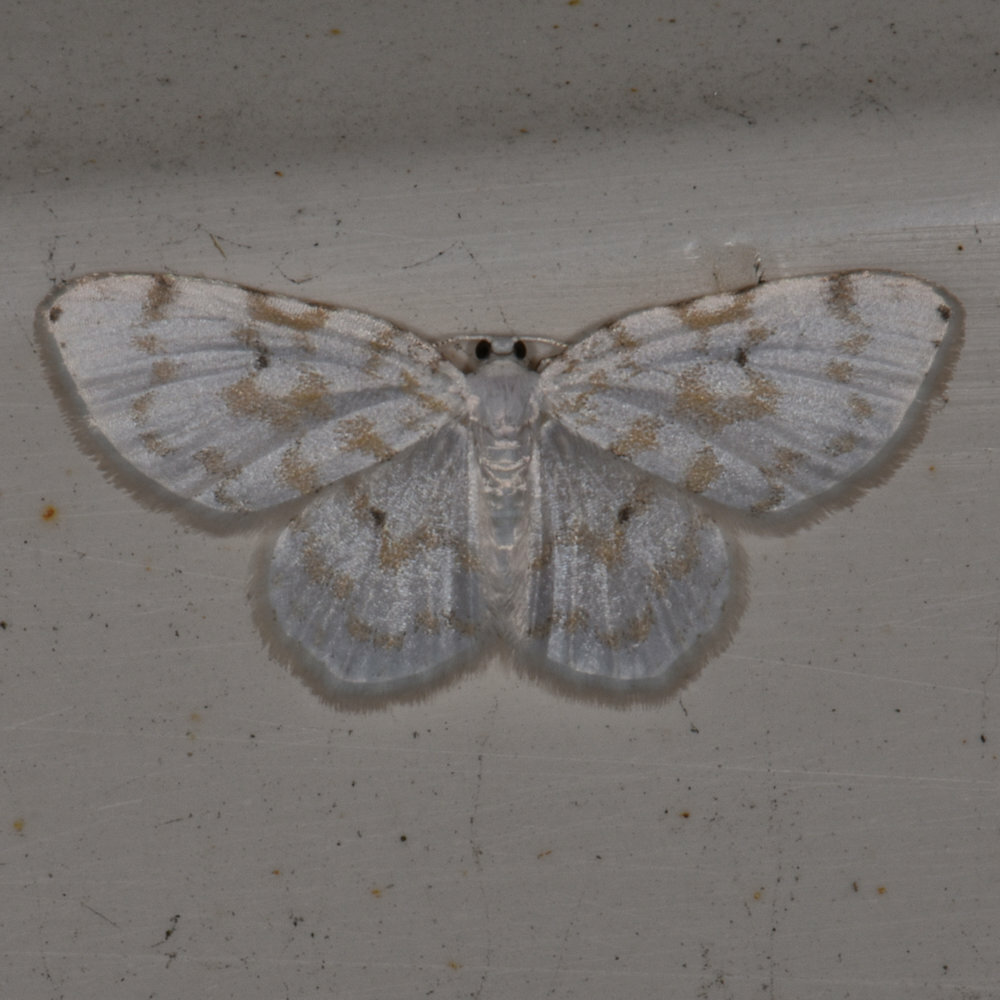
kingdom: Animalia
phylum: Arthropoda
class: Insecta
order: Lepidoptera
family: Geometridae
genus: Hydrelia
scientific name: Hydrelia albifera
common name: Fragile white carpet
